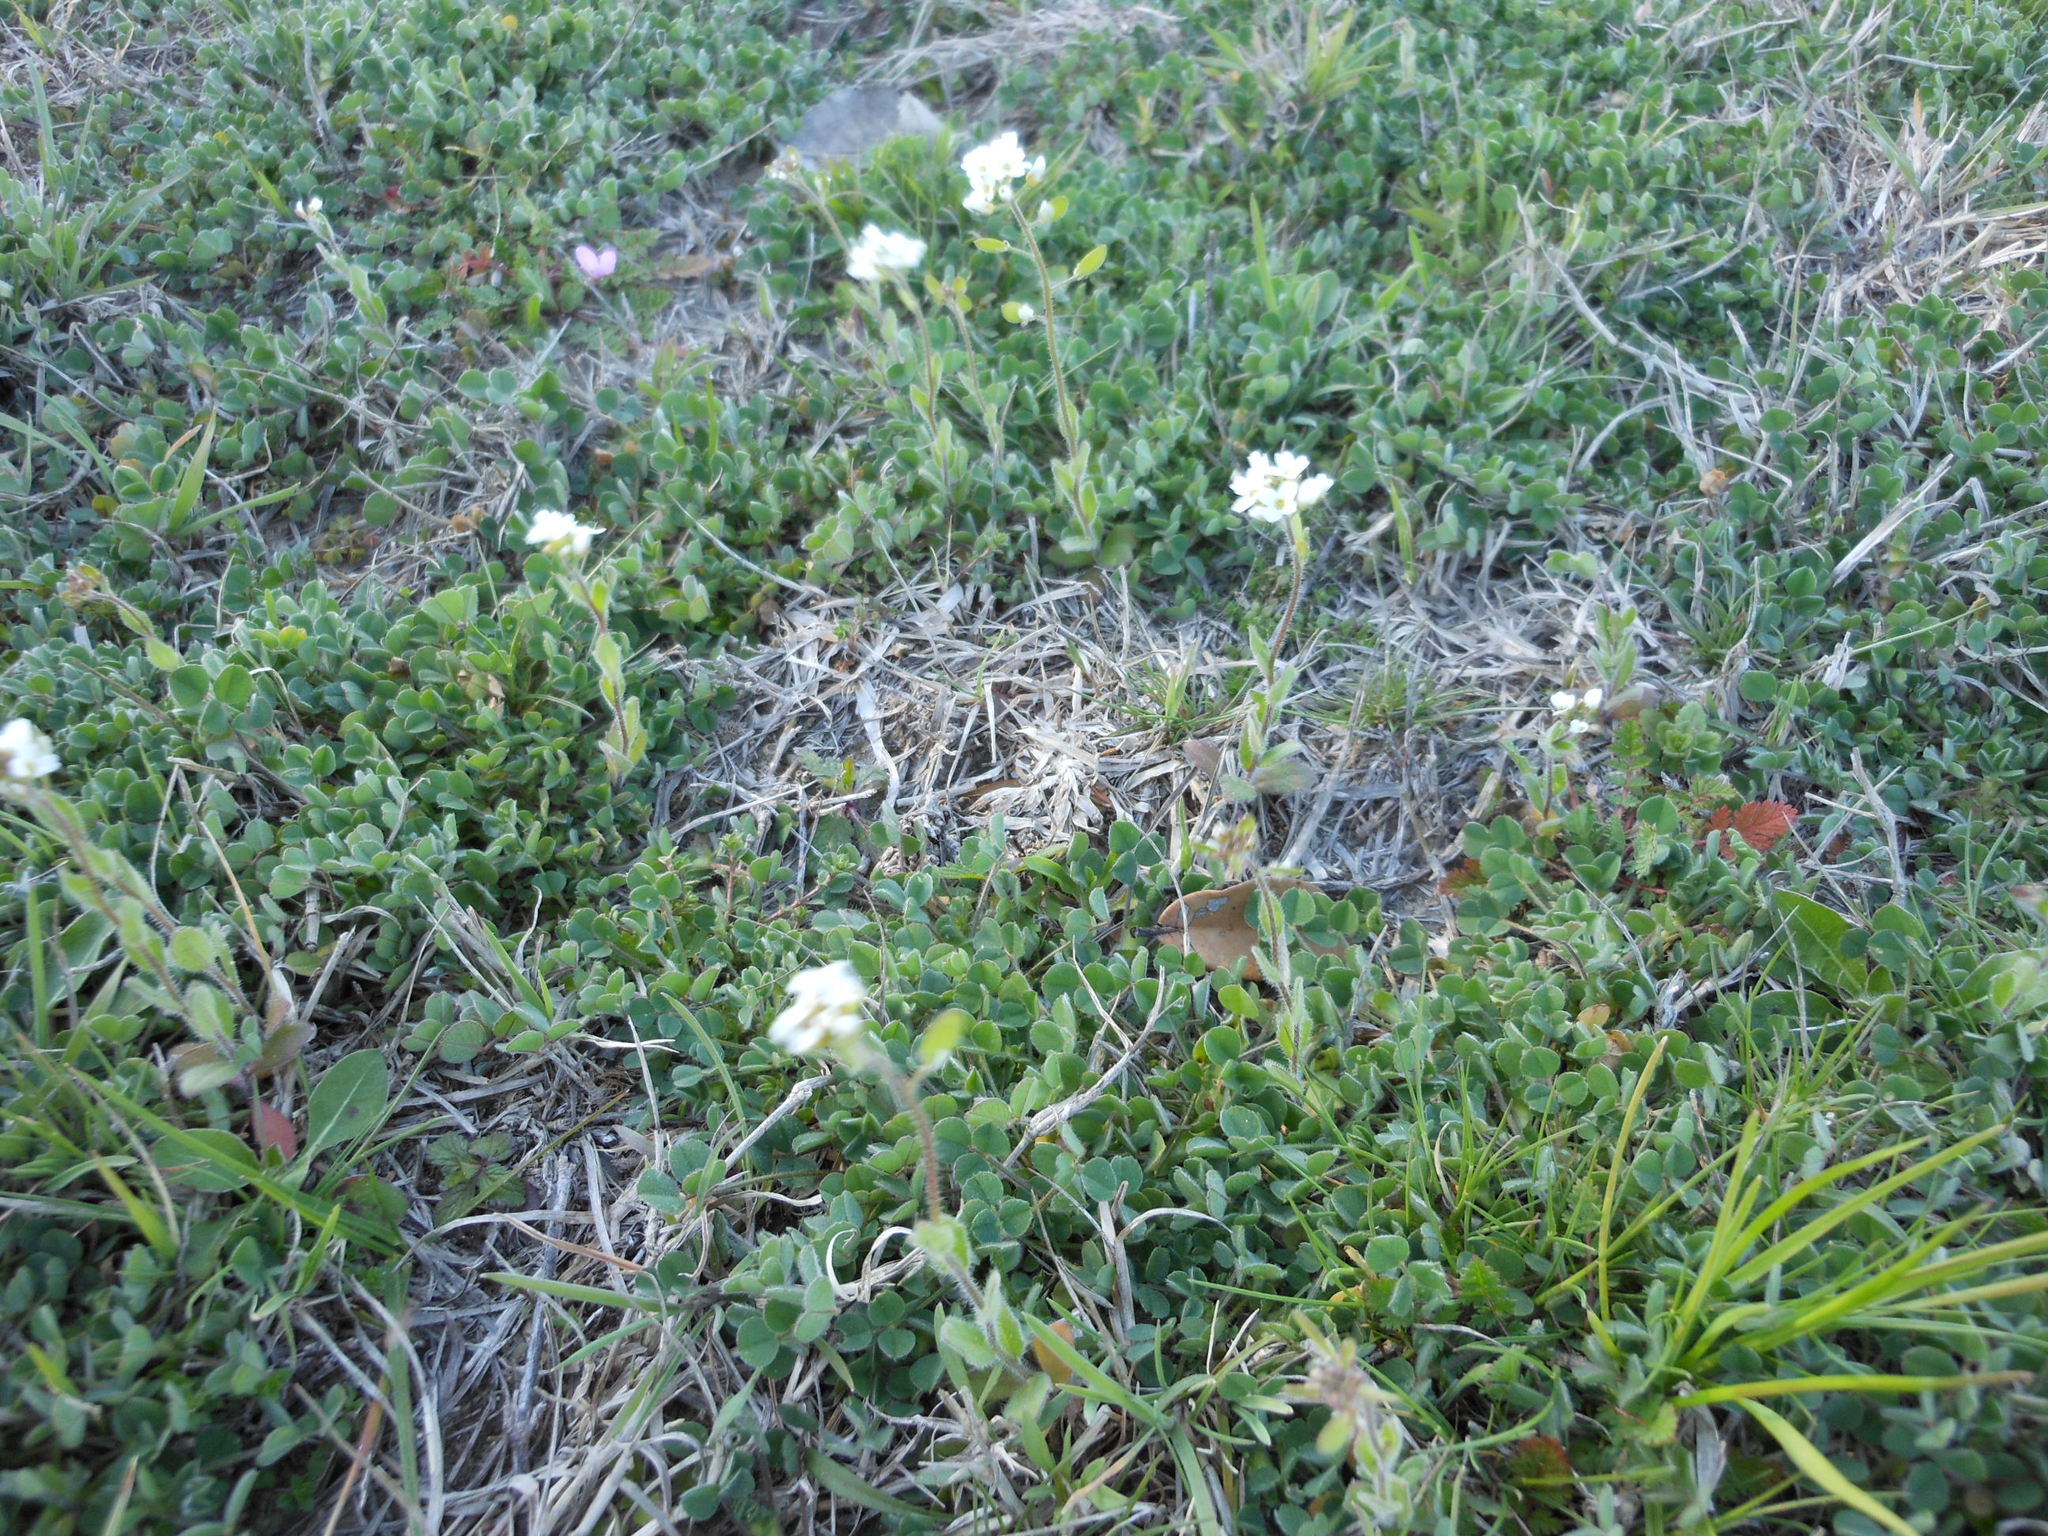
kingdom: Plantae
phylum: Tracheophyta
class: Magnoliopsida
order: Brassicales
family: Brassicaceae
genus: Tomostima
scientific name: Tomostima platycarpa
